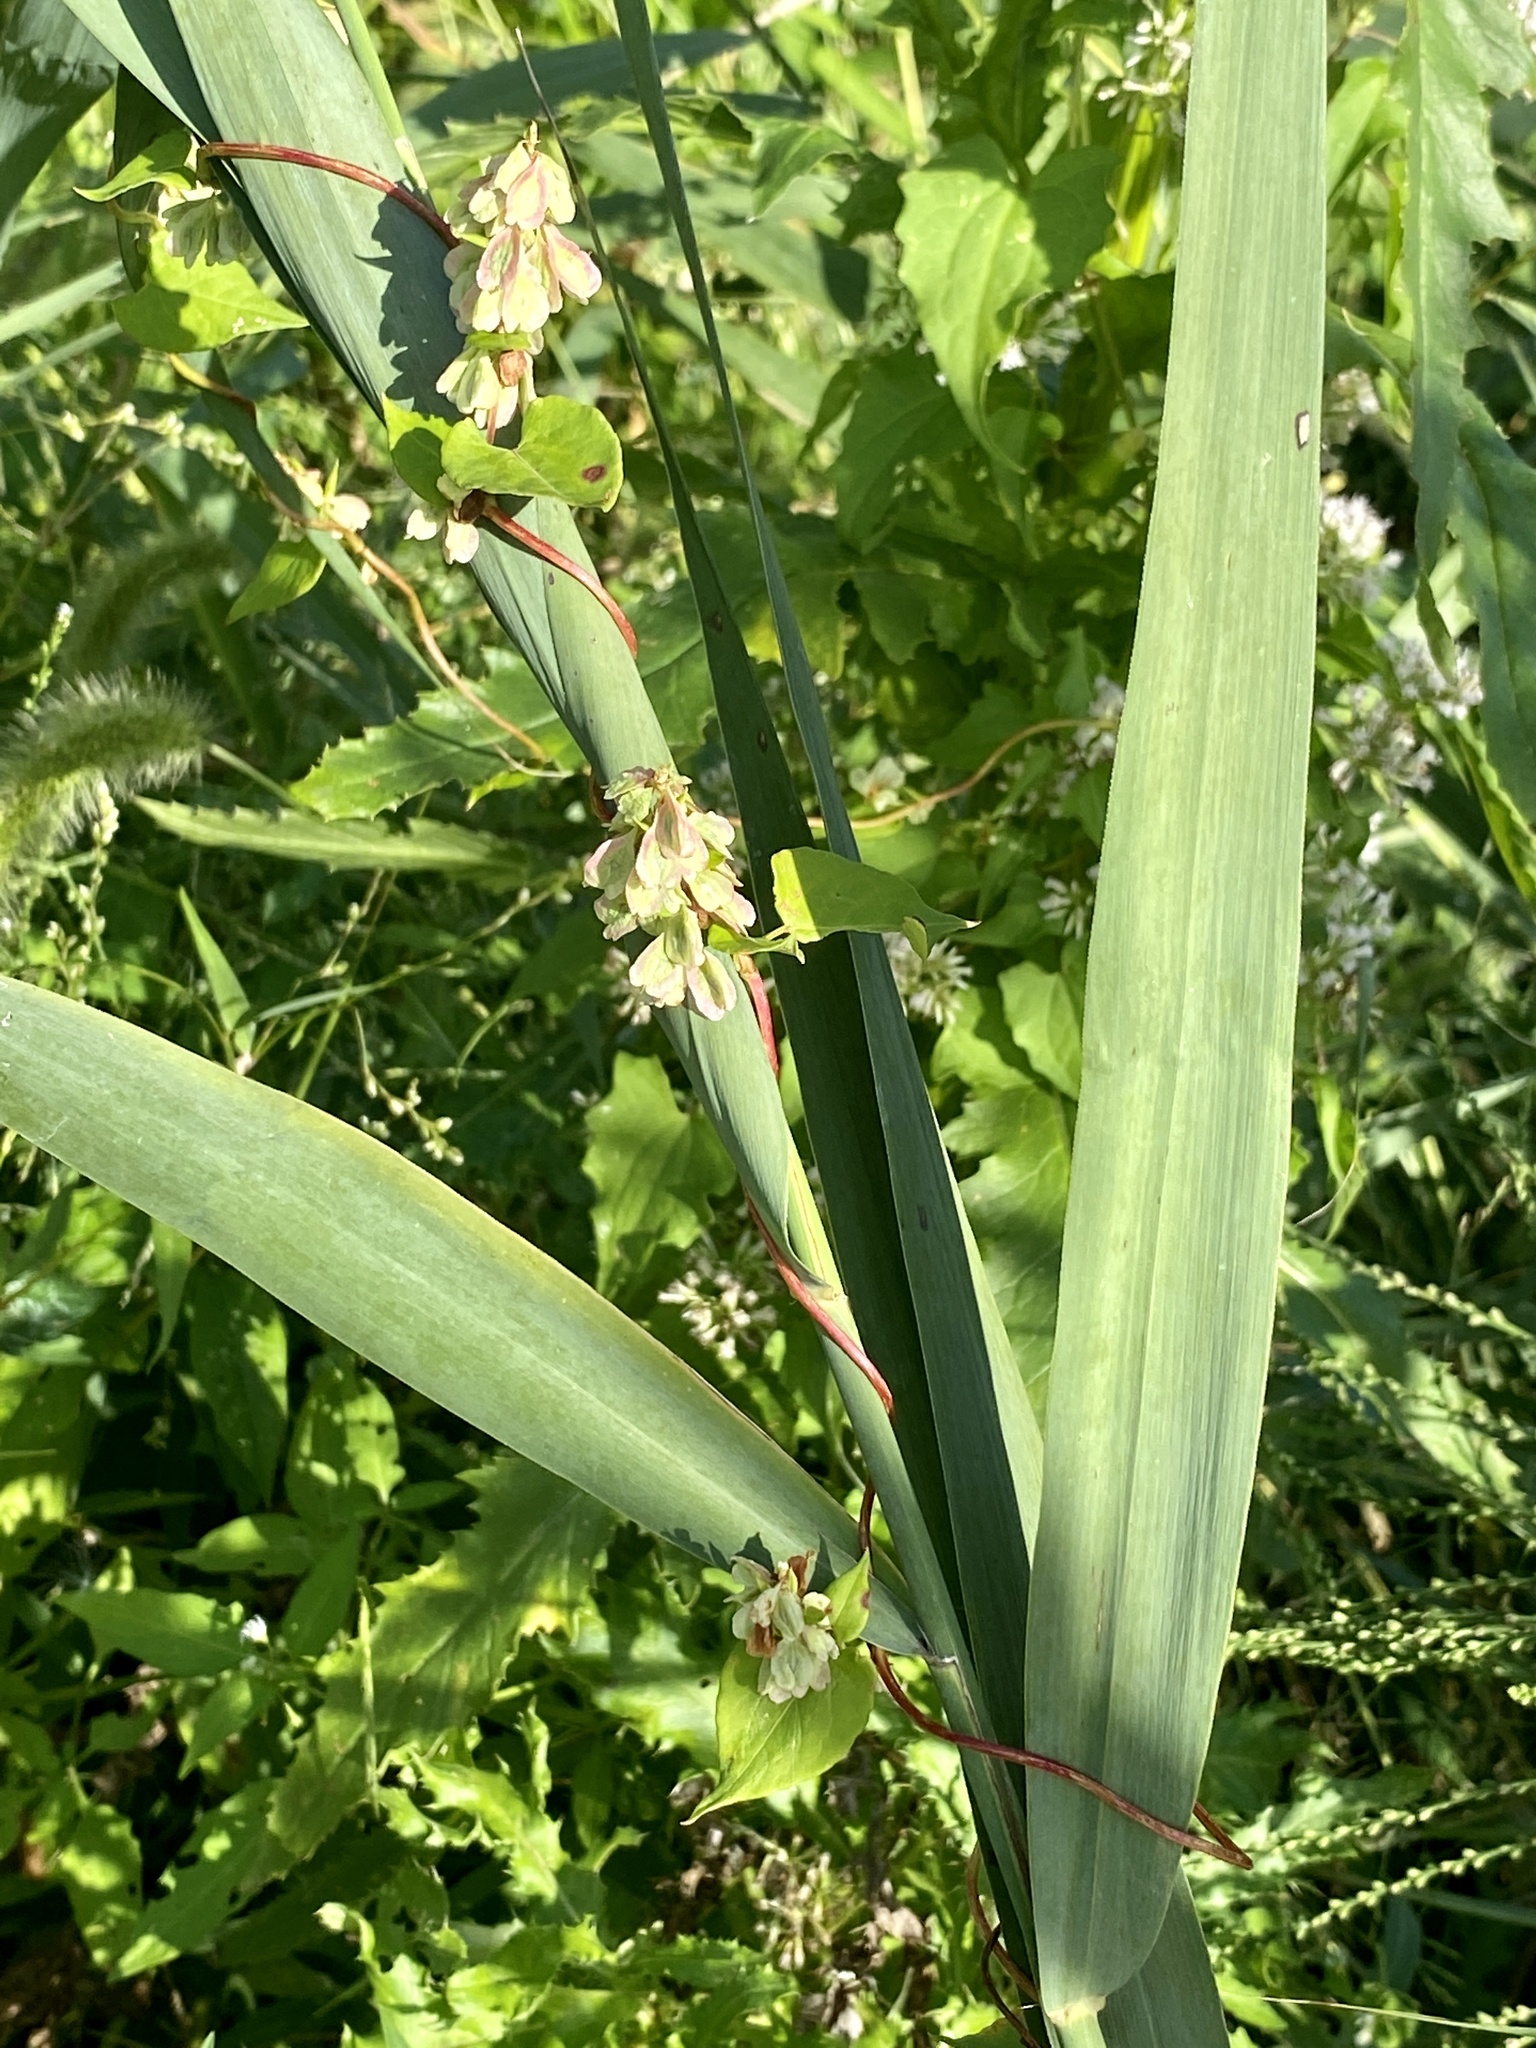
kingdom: Plantae
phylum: Tracheophyta
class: Magnoliopsida
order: Caryophyllales
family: Polygonaceae
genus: Fallopia
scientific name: Fallopia scandens
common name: Climbing false buckwheat
